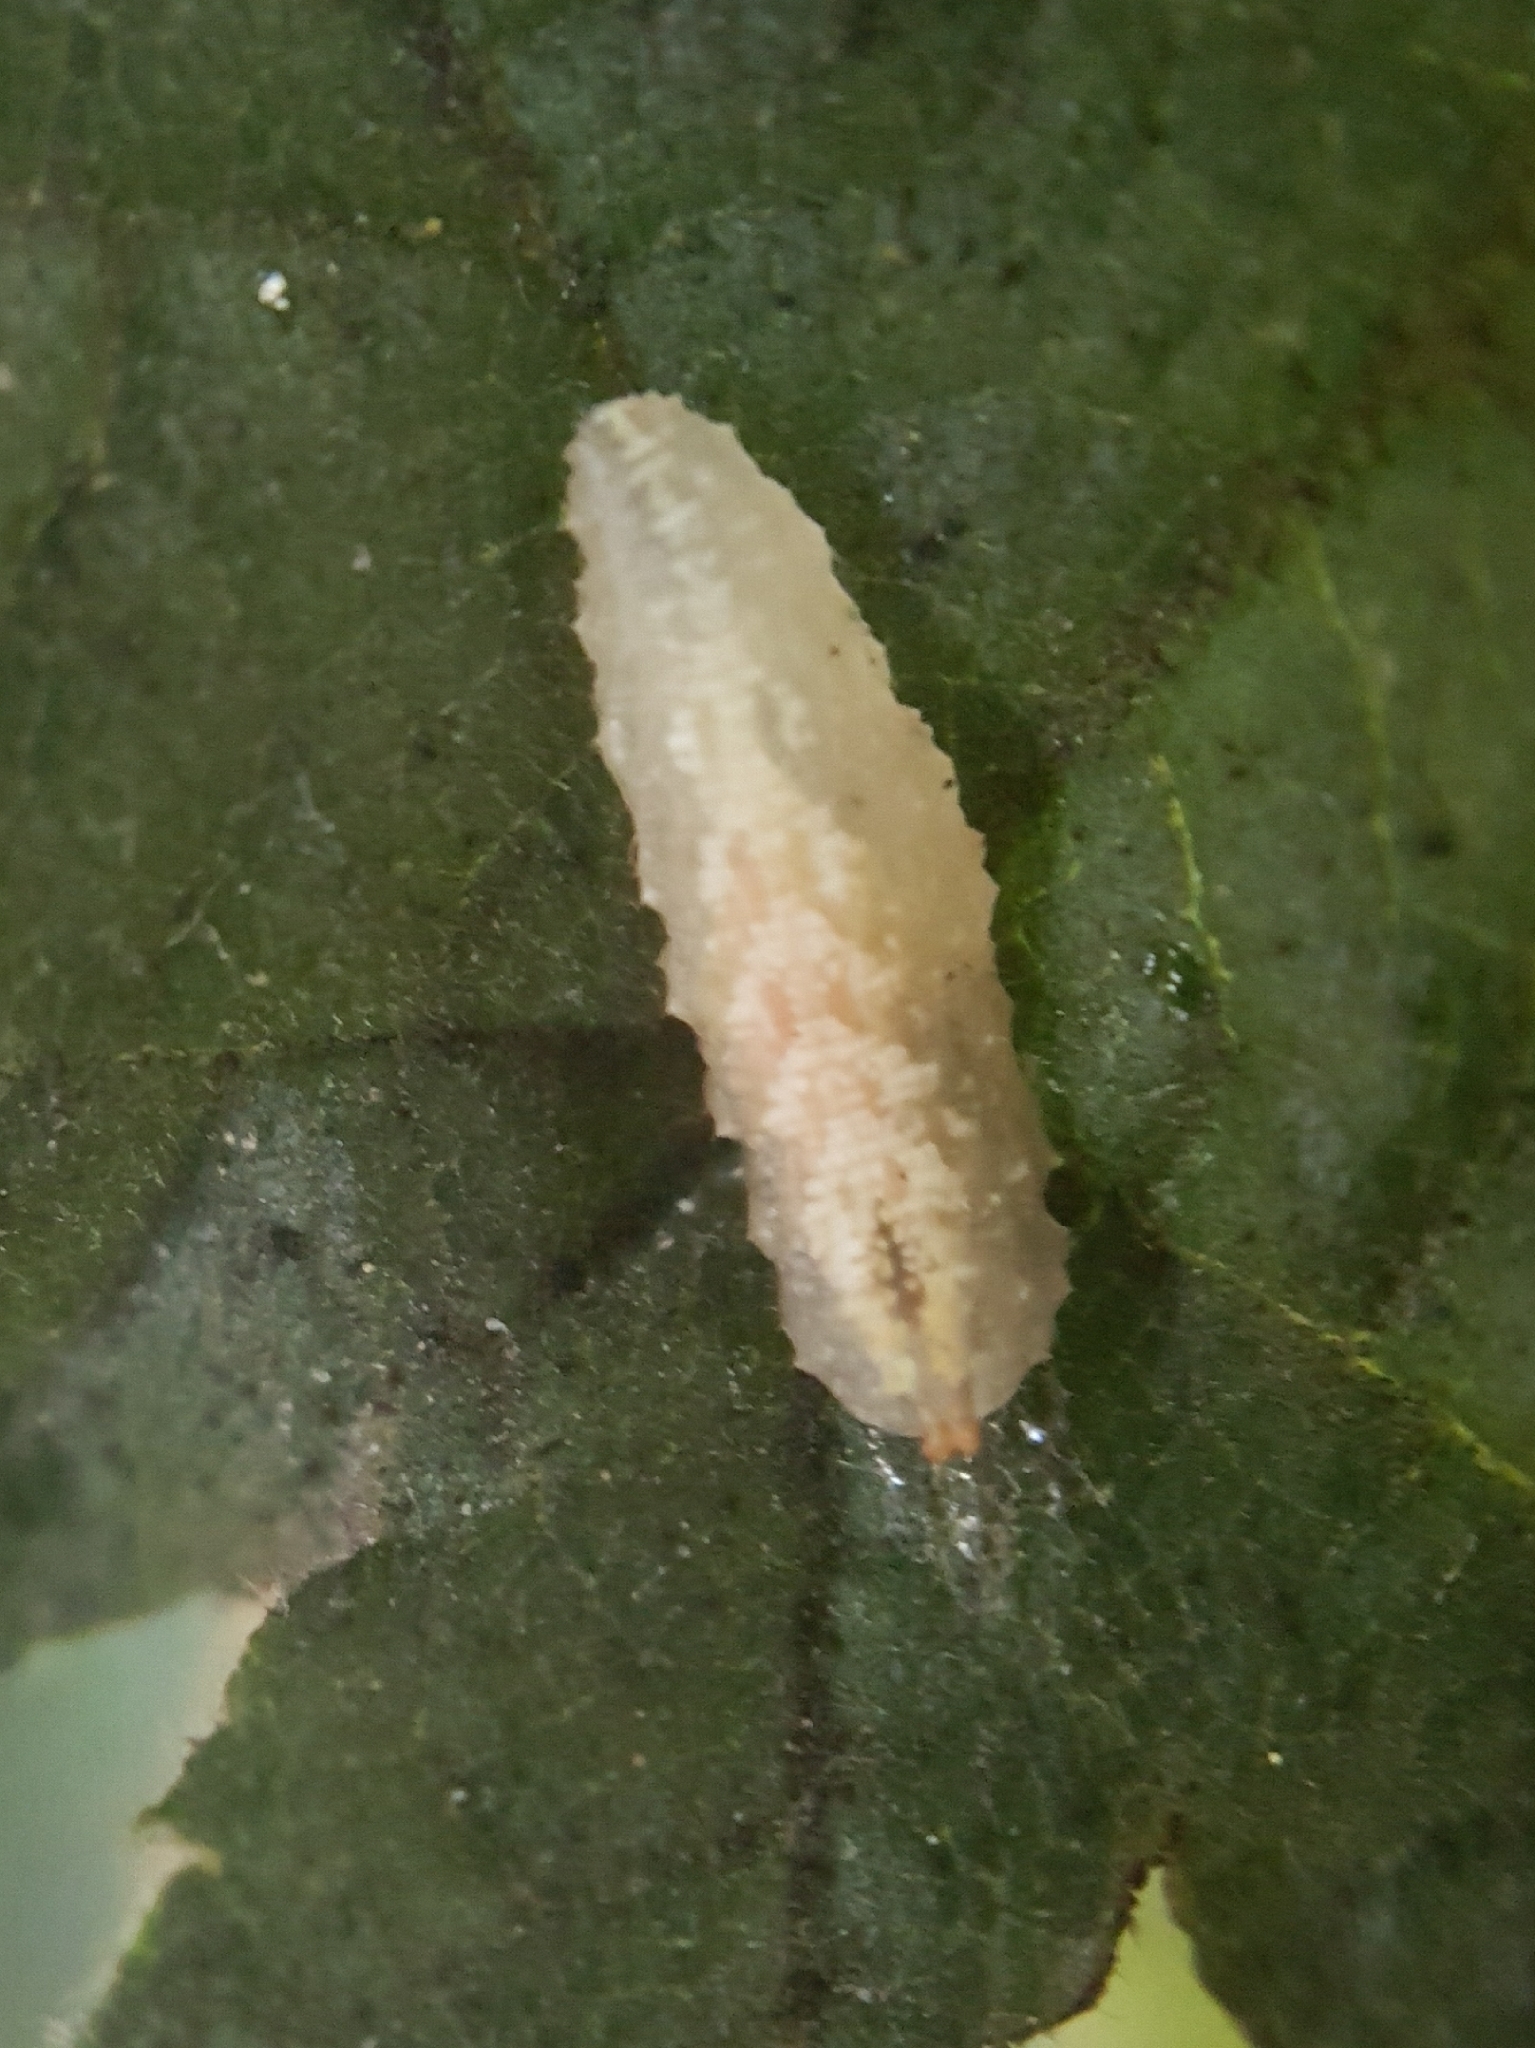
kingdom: Animalia
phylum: Arthropoda
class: Insecta
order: Diptera
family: Syrphidae
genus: Syrphus
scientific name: Syrphus
